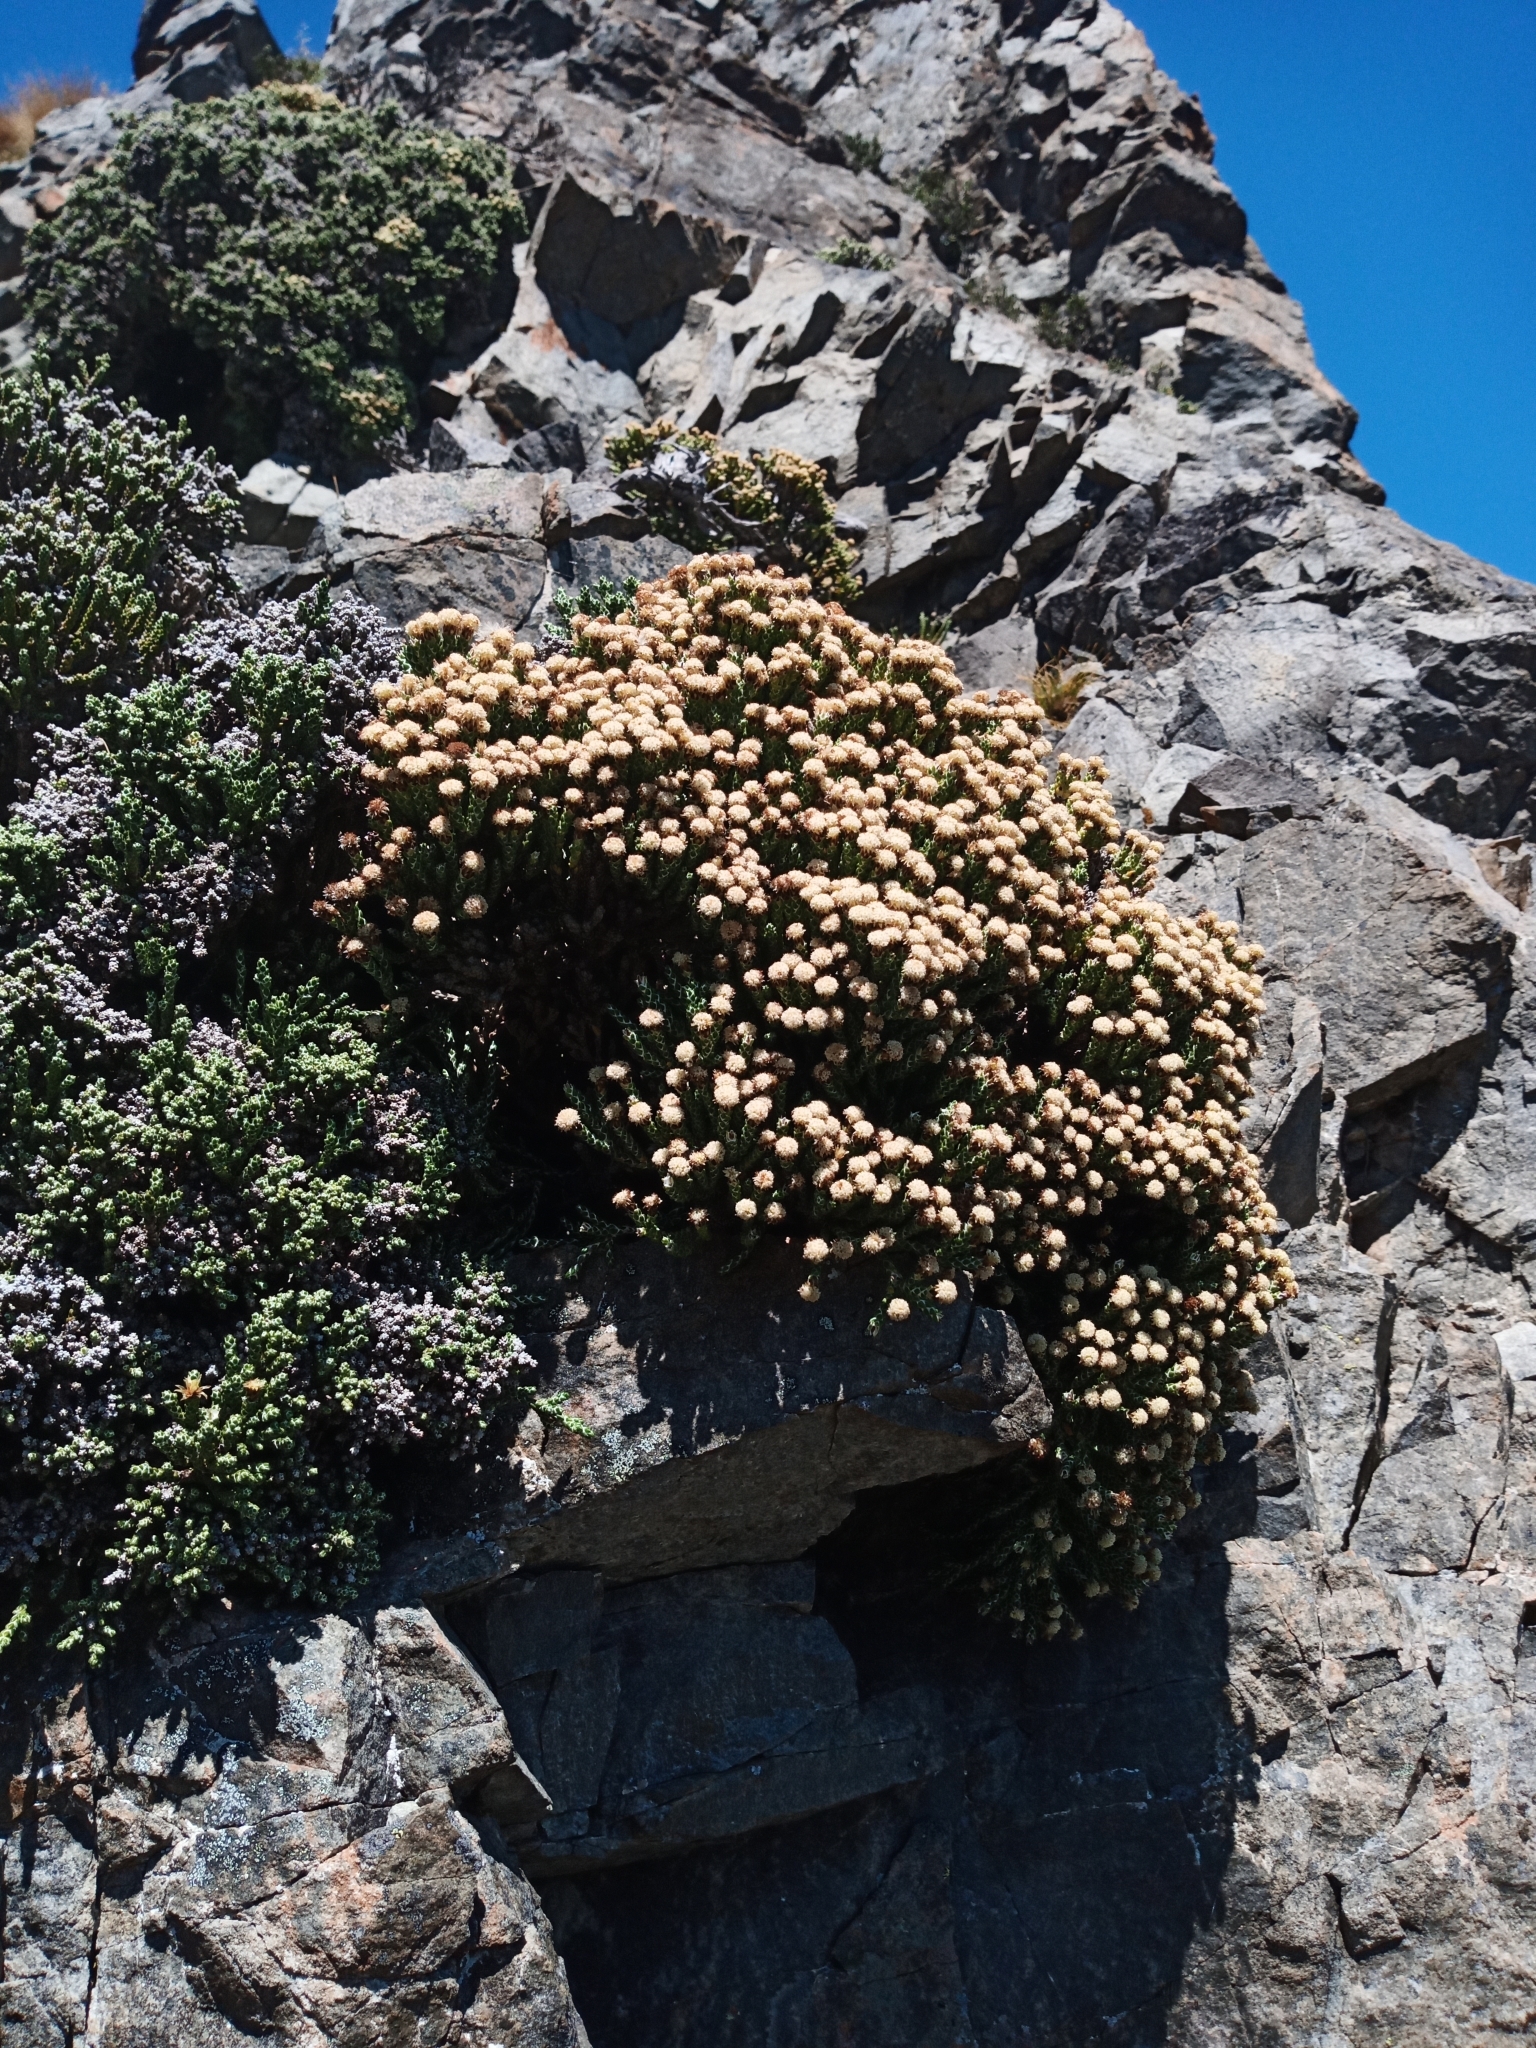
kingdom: Plantae
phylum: Tracheophyta
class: Magnoliopsida
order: Asterales
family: Asteraceae
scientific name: Asteraceae
